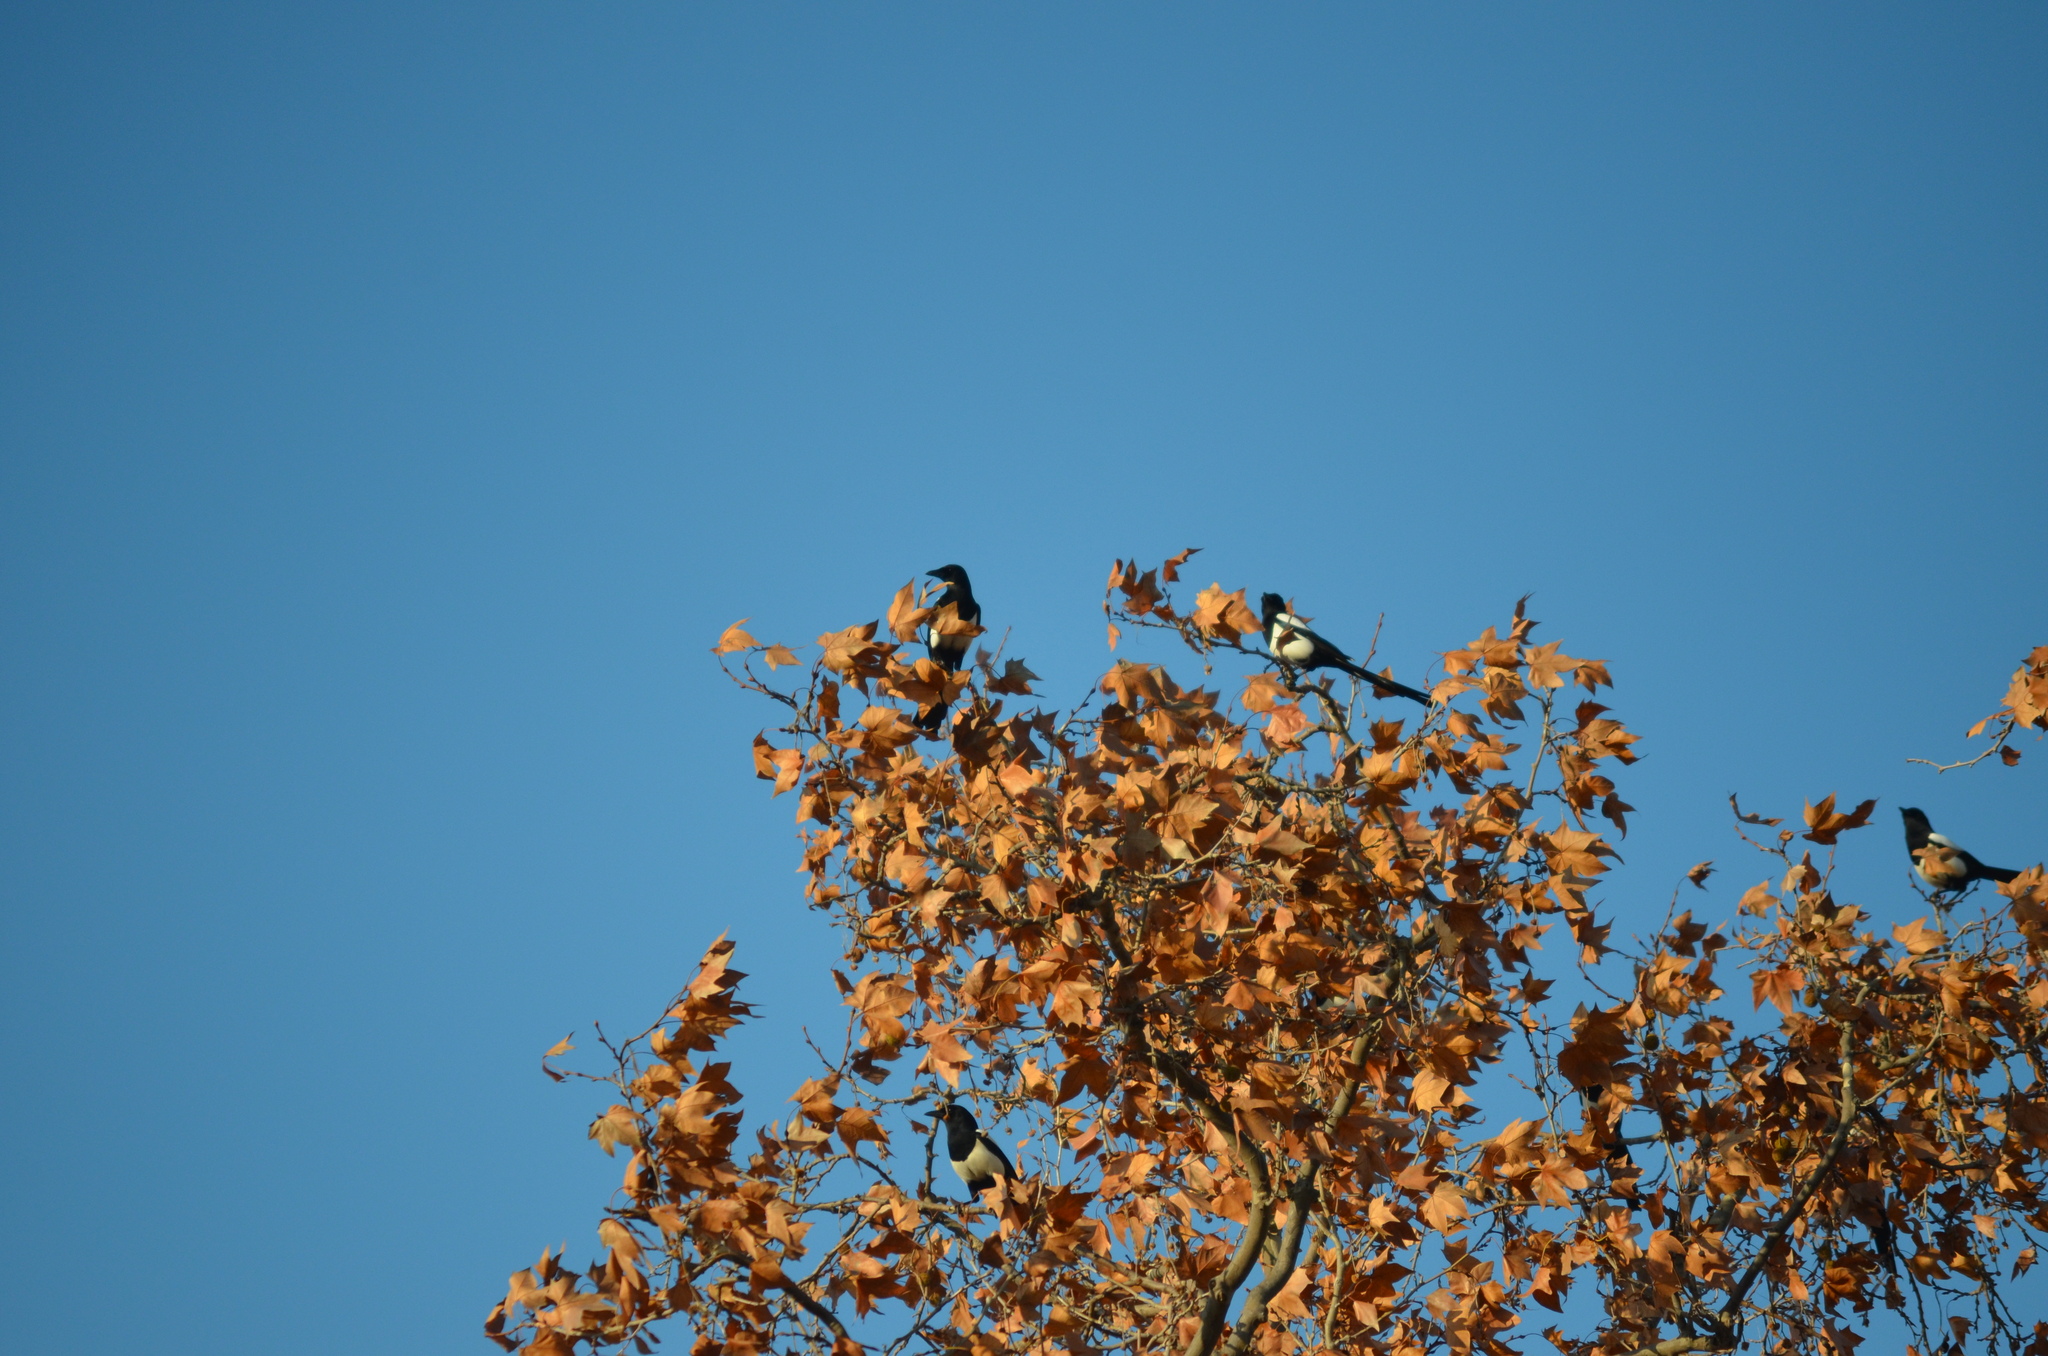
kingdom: Animalia
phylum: Chordata
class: Aves
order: Passeriformes
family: Corvidae
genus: Pica
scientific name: Pica pica
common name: Eurasian magpie
